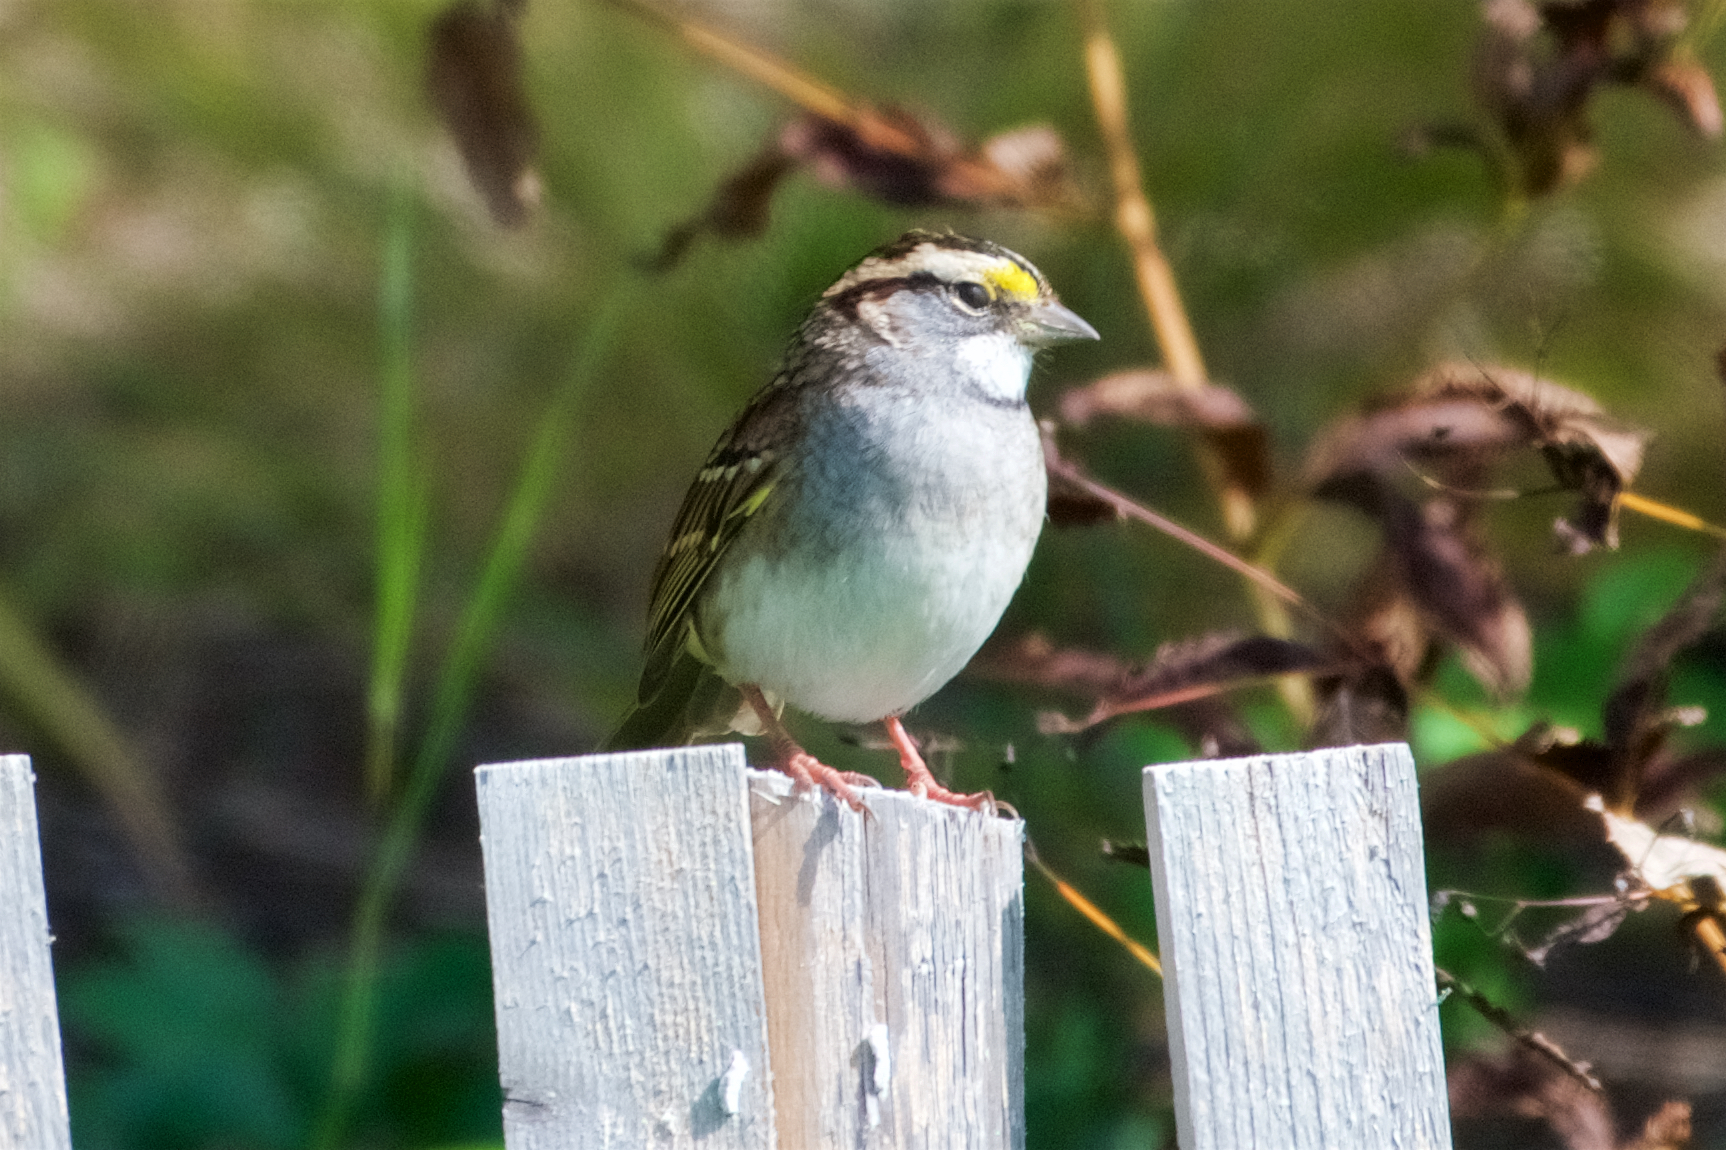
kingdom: Animalia
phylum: Chordata
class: Aves
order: Passeriformes
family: Passerellidae
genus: Zonotrichia
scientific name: Zonotrichia albicollis
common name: White-throated sparrow
